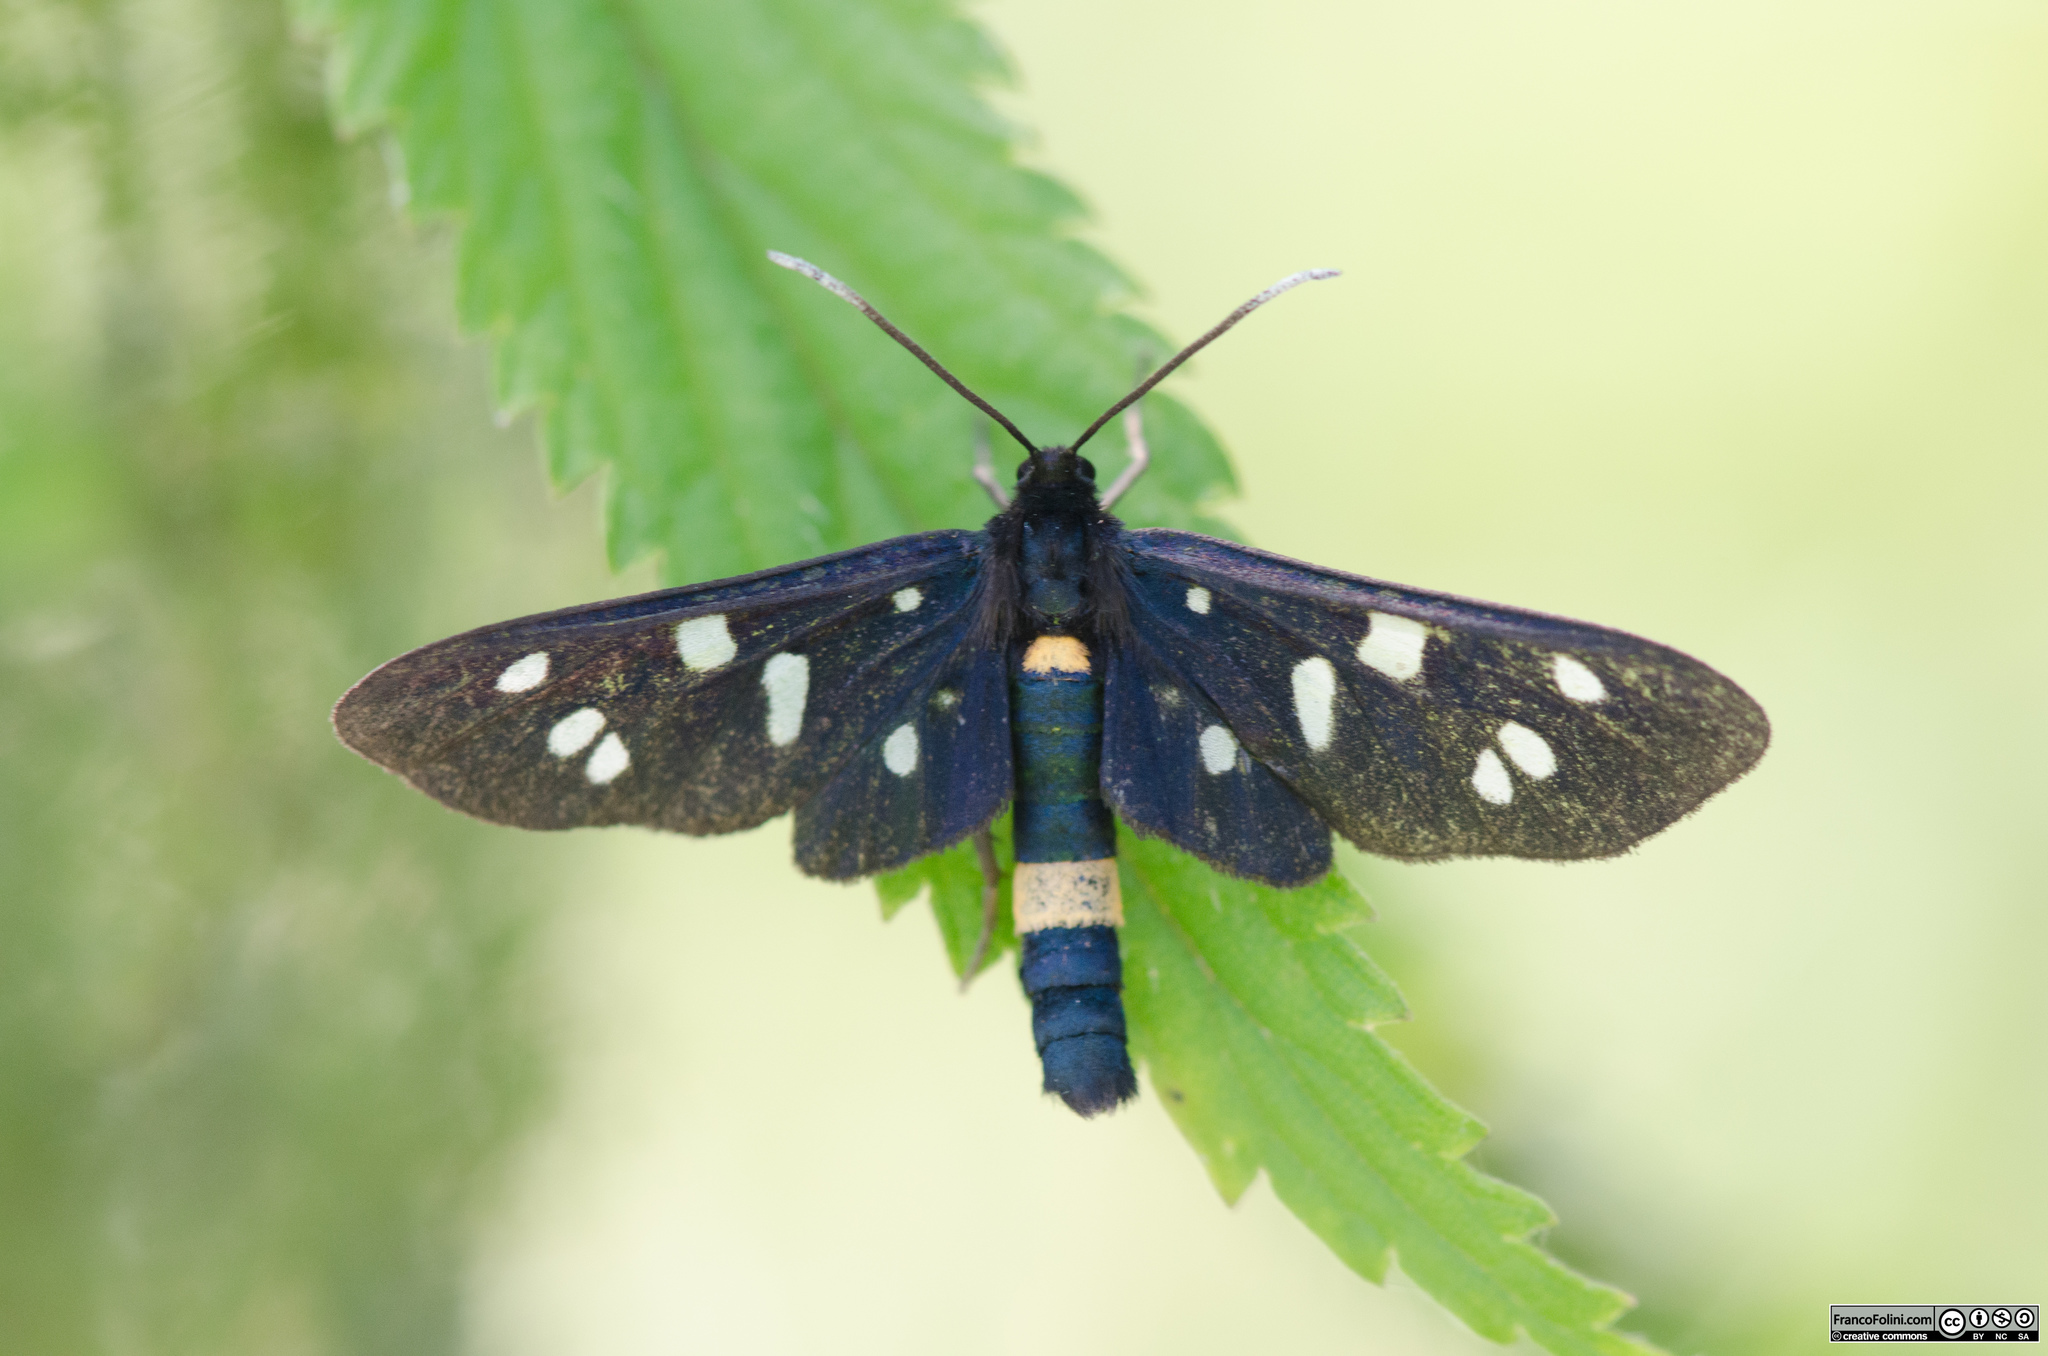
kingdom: Animalia
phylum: Arthropoda
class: Insecta
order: Lepidoptera
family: Erebidae
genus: Amata
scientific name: Amata phegea
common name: Nine-spotted
